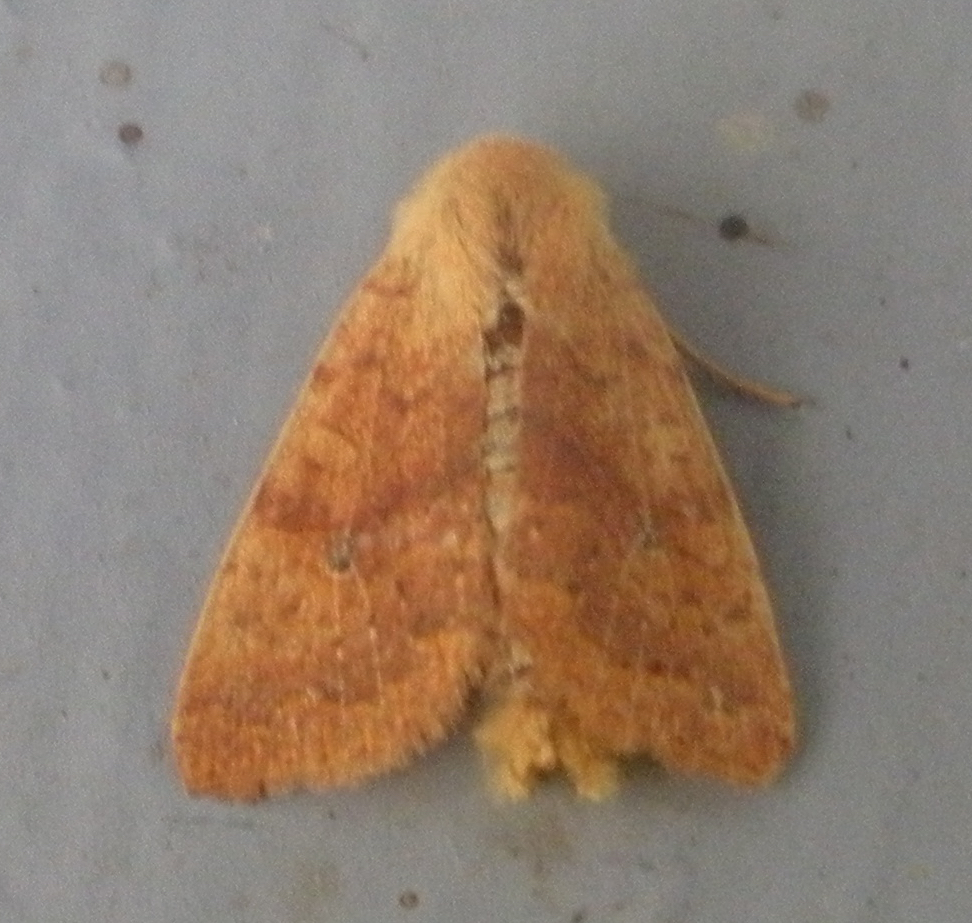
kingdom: Animalia
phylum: Arthropoda
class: Insecta
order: Lepidoptera
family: Noctuidae
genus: Agrochola
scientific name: Agrochola bicolorago
